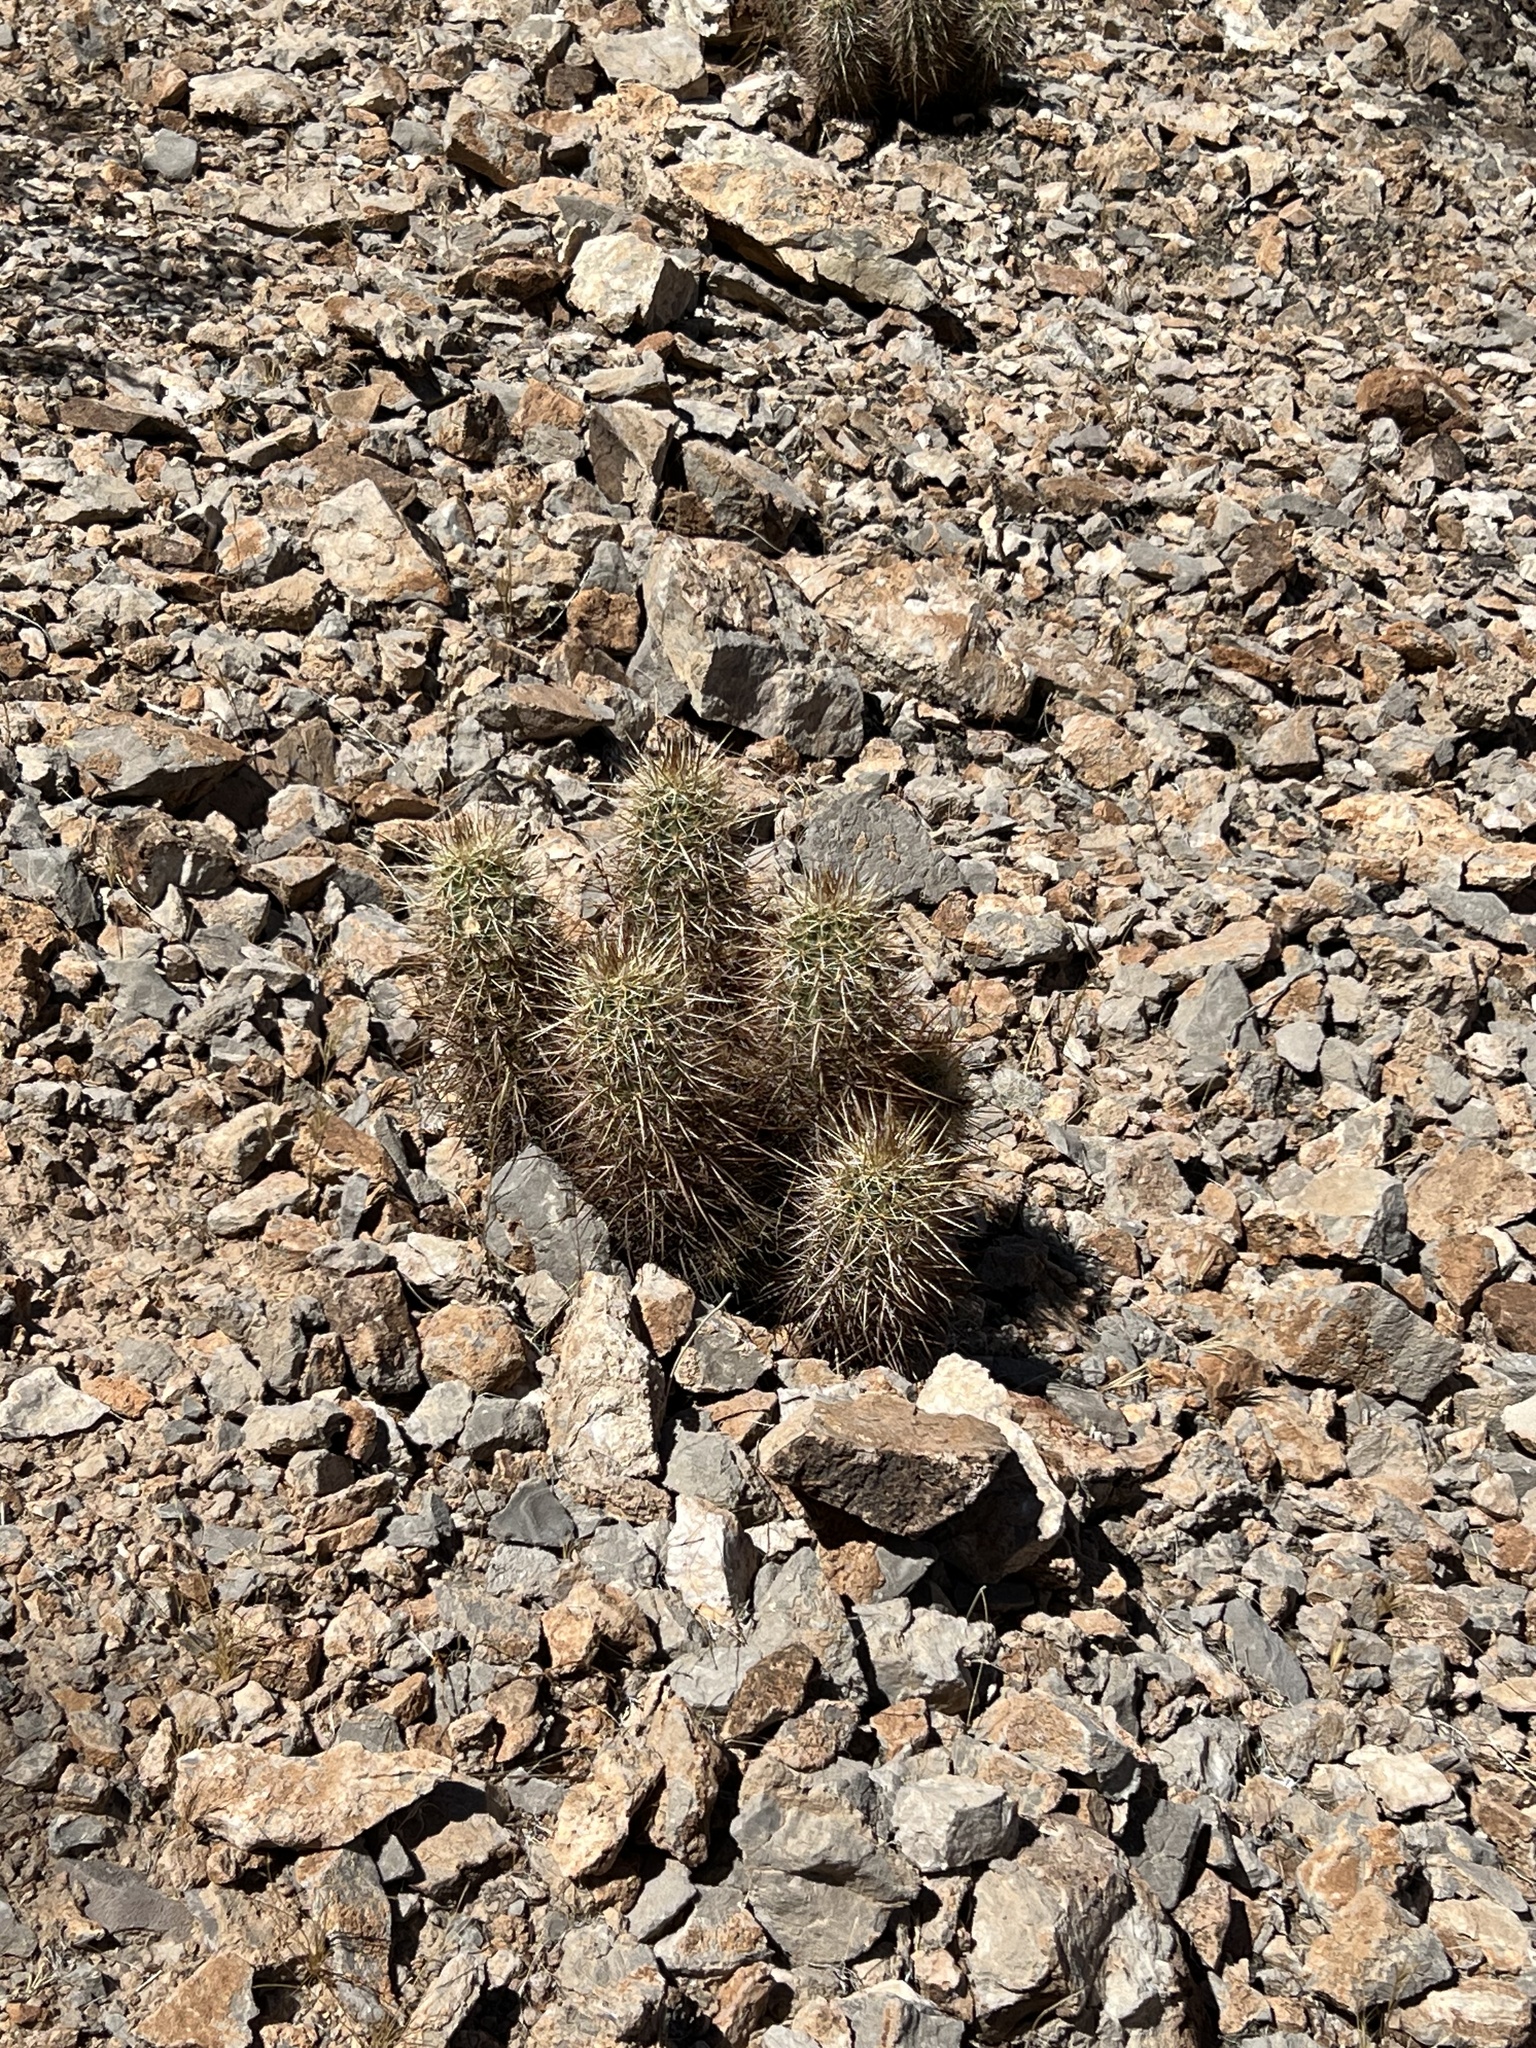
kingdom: Plantae
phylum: Tracheophyta
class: Magnoliopsida
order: Caryophyllales
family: Cactaceae
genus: Echinocereus
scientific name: Echinocereus engelmannii
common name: Engelmann's hedgehog cactus
